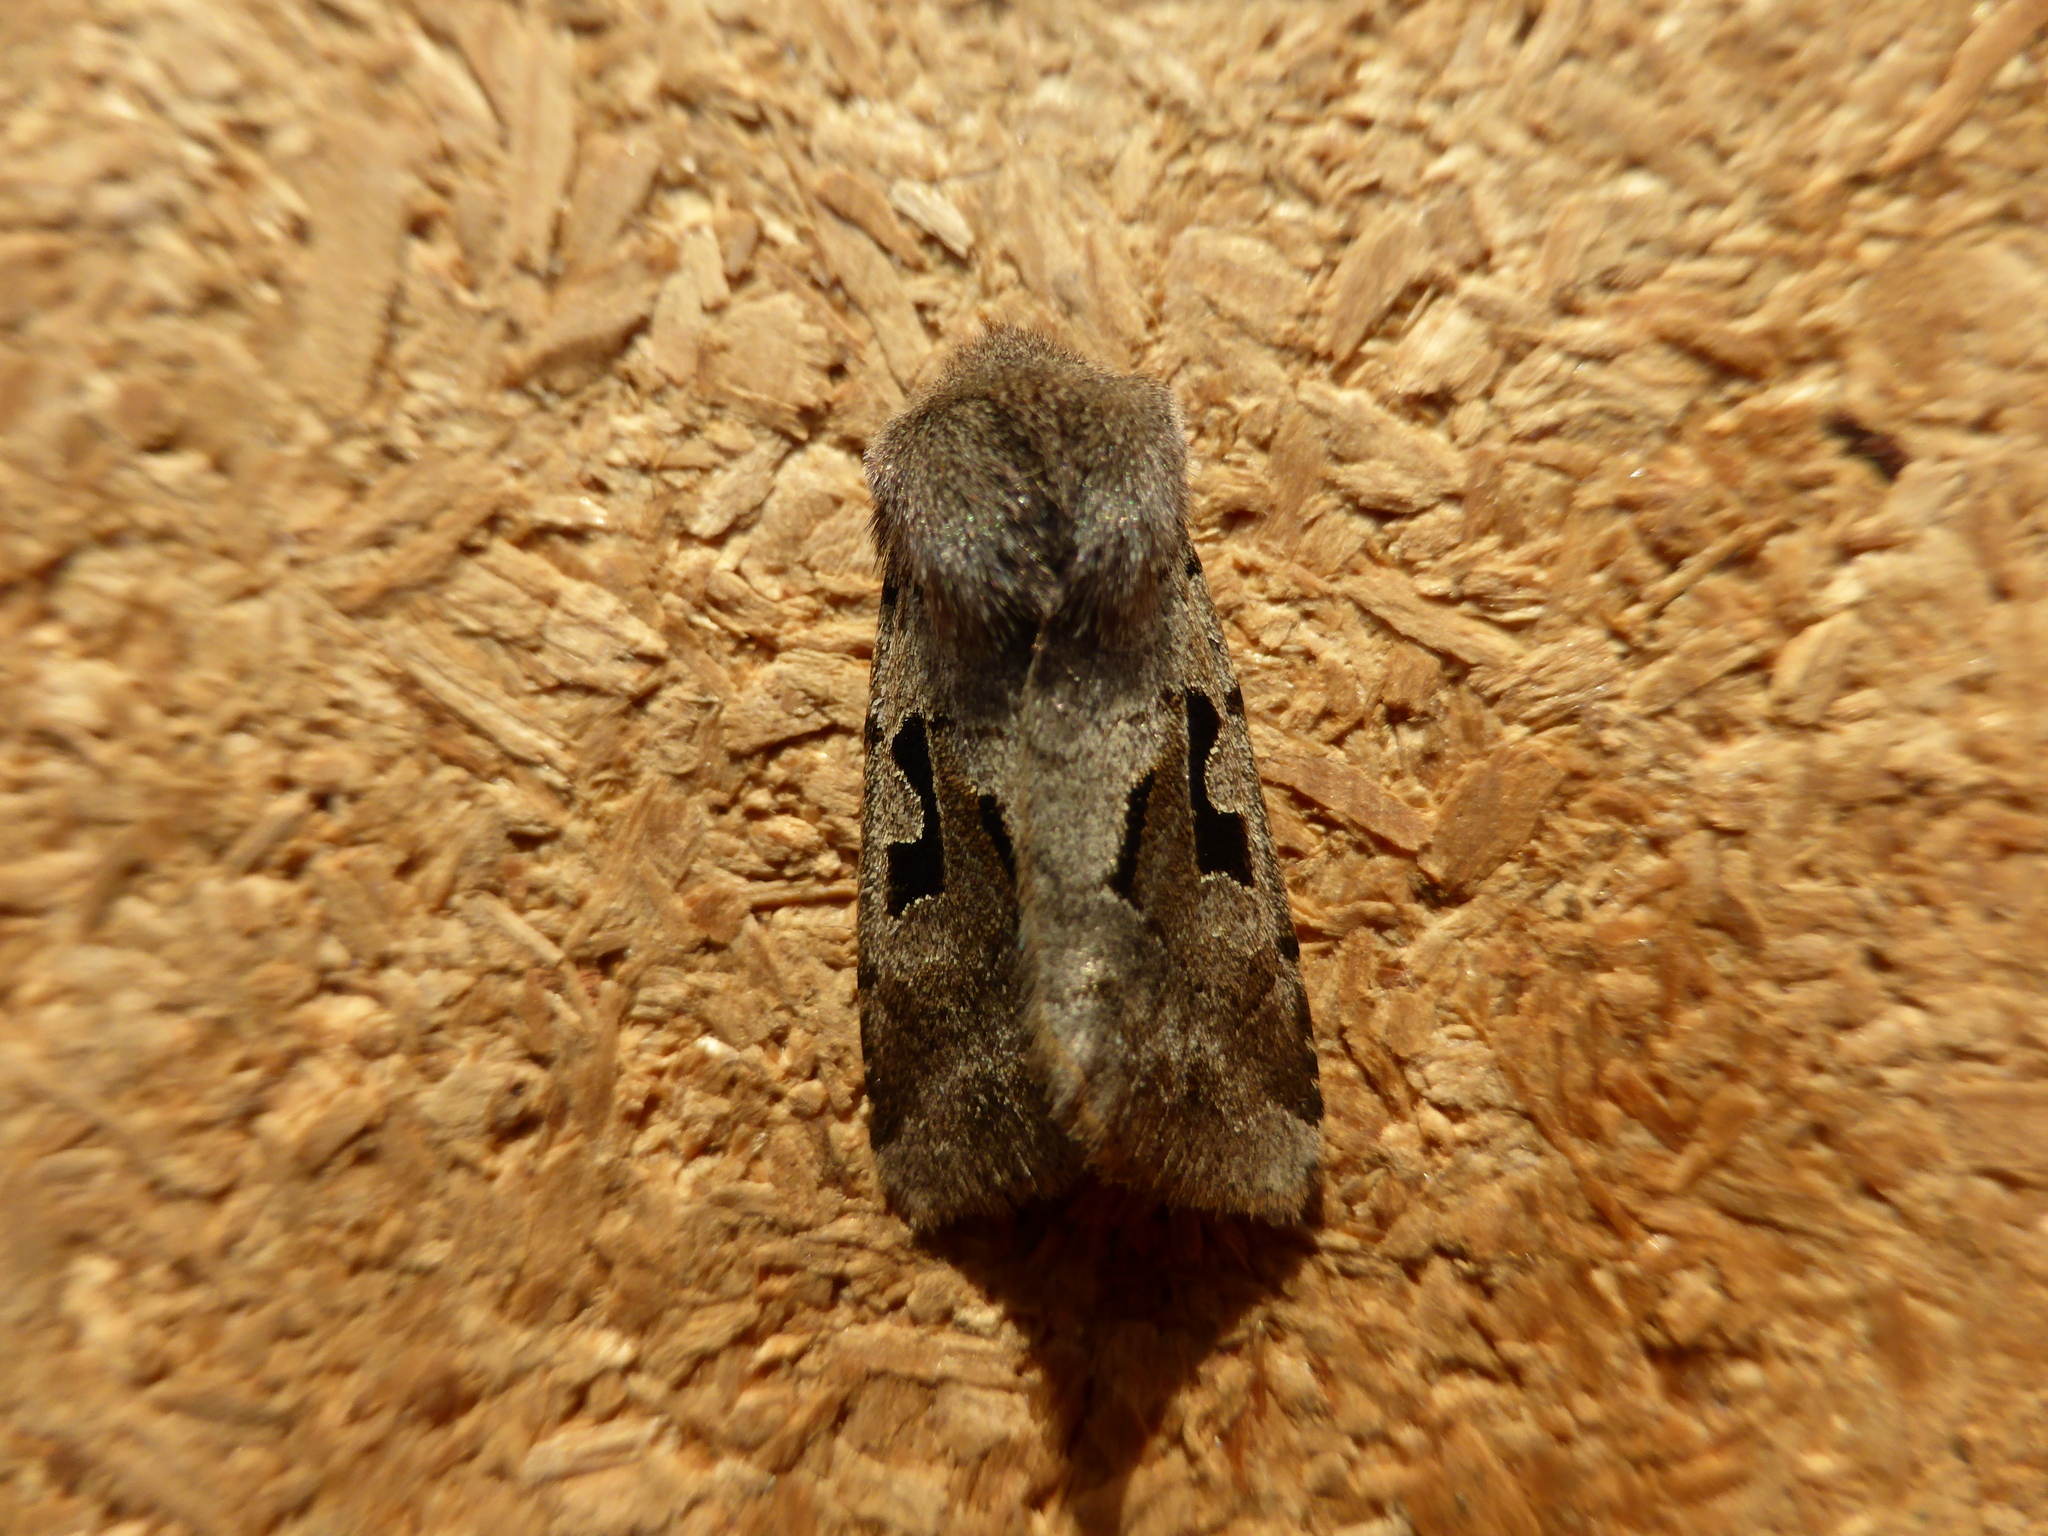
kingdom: Animalia
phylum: Arthropoda
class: Insecta
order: Lepidoptera
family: Noctuidae
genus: Orthosia
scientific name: Orthosia gothica
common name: Hebrew character
